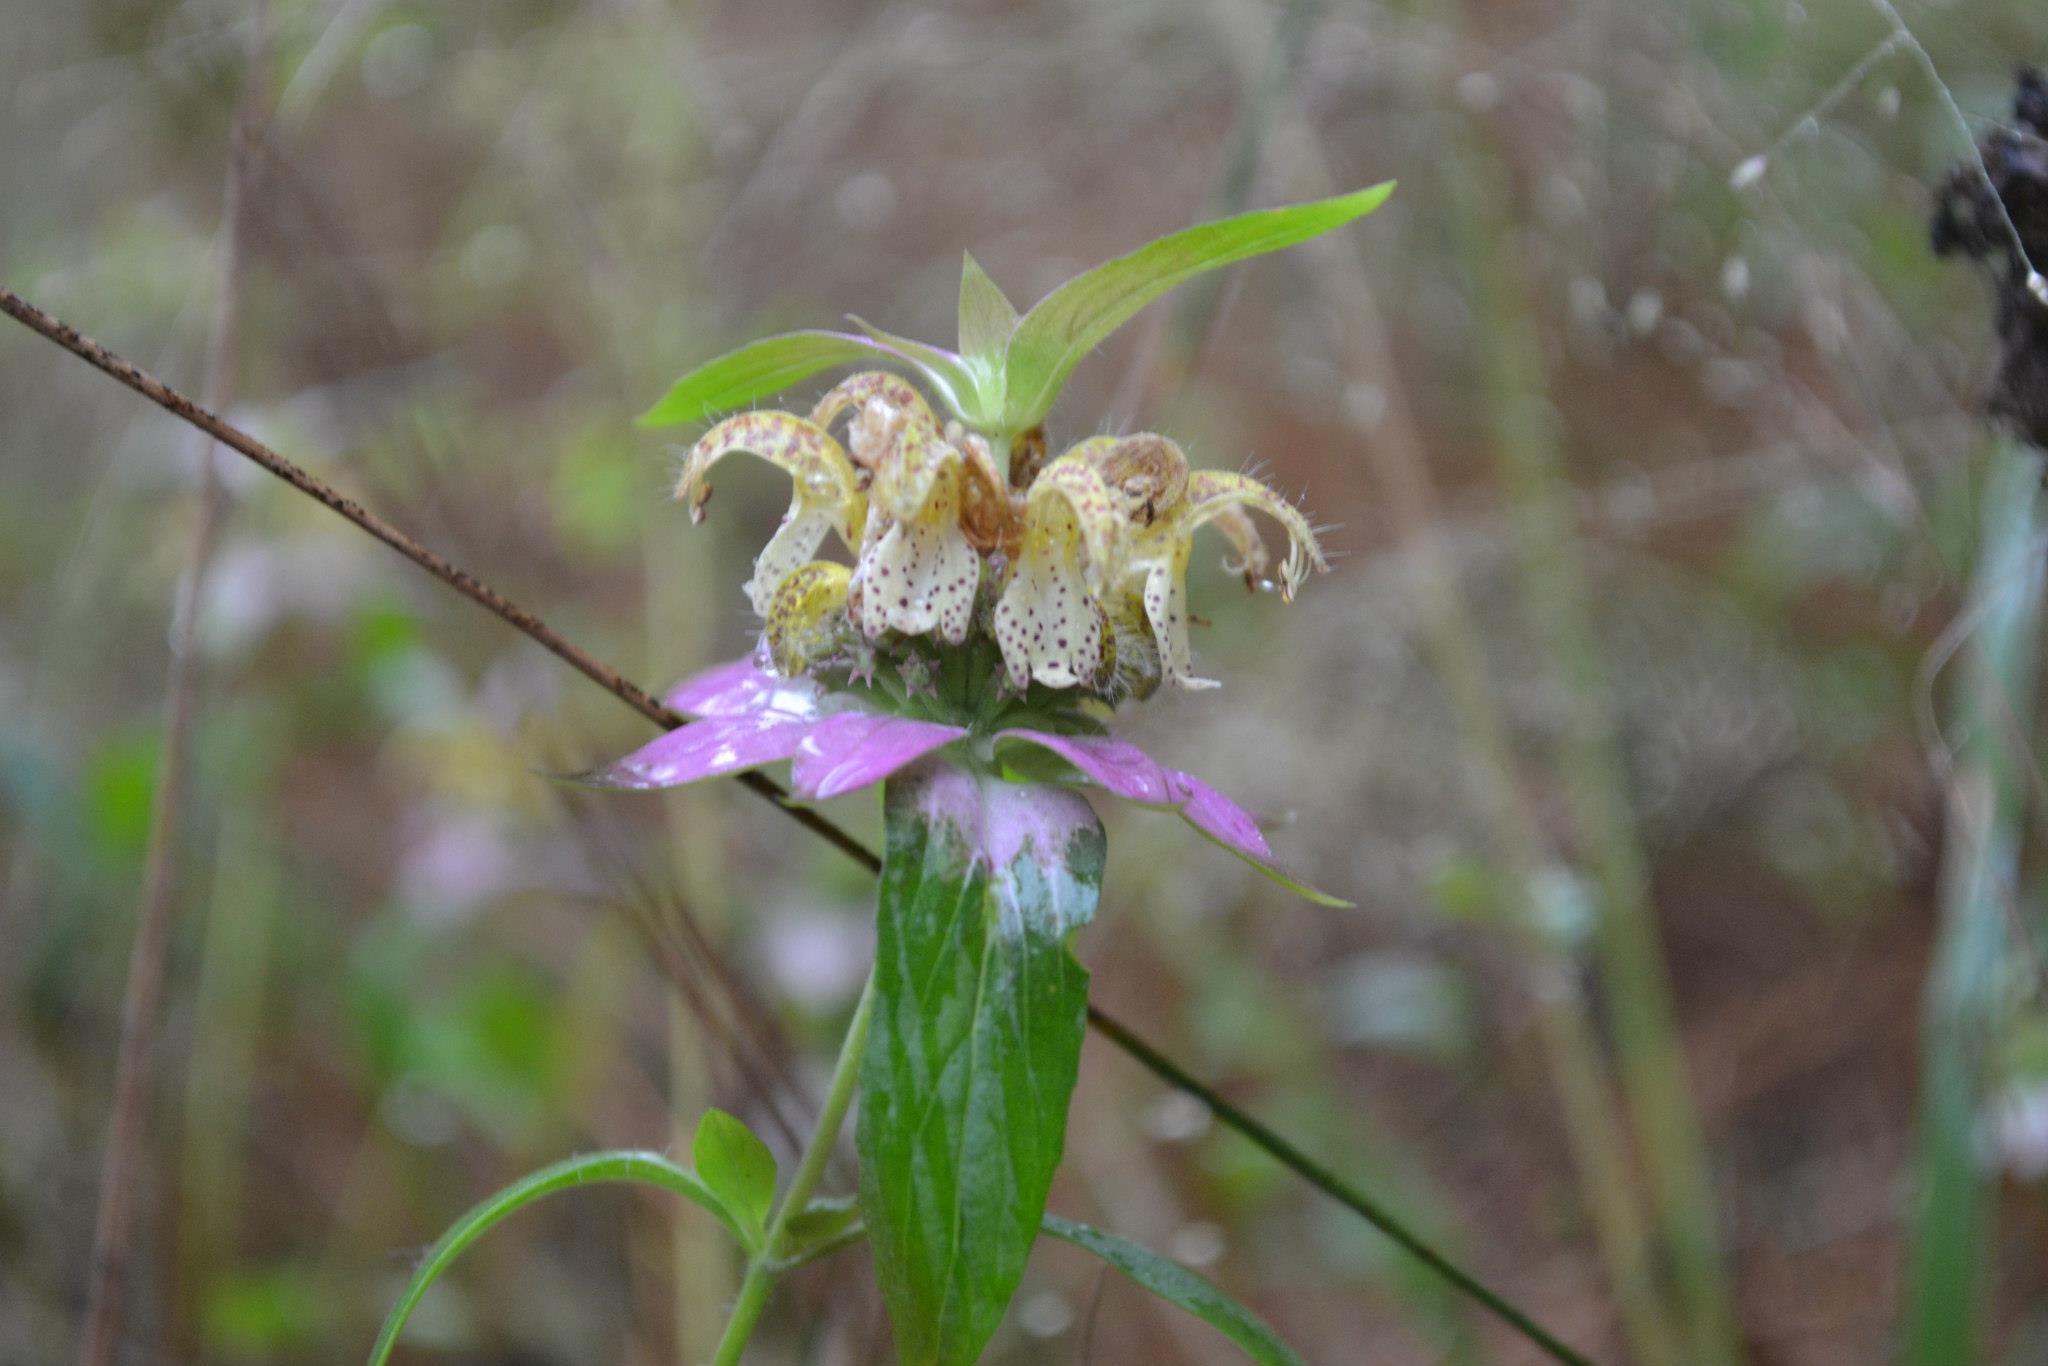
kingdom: Plantae
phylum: Tracheophyta
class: Magnoliopsida
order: Lamiales
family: Lamiaceae
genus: Monarda
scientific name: Monarda punctata
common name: Dotted monarda
